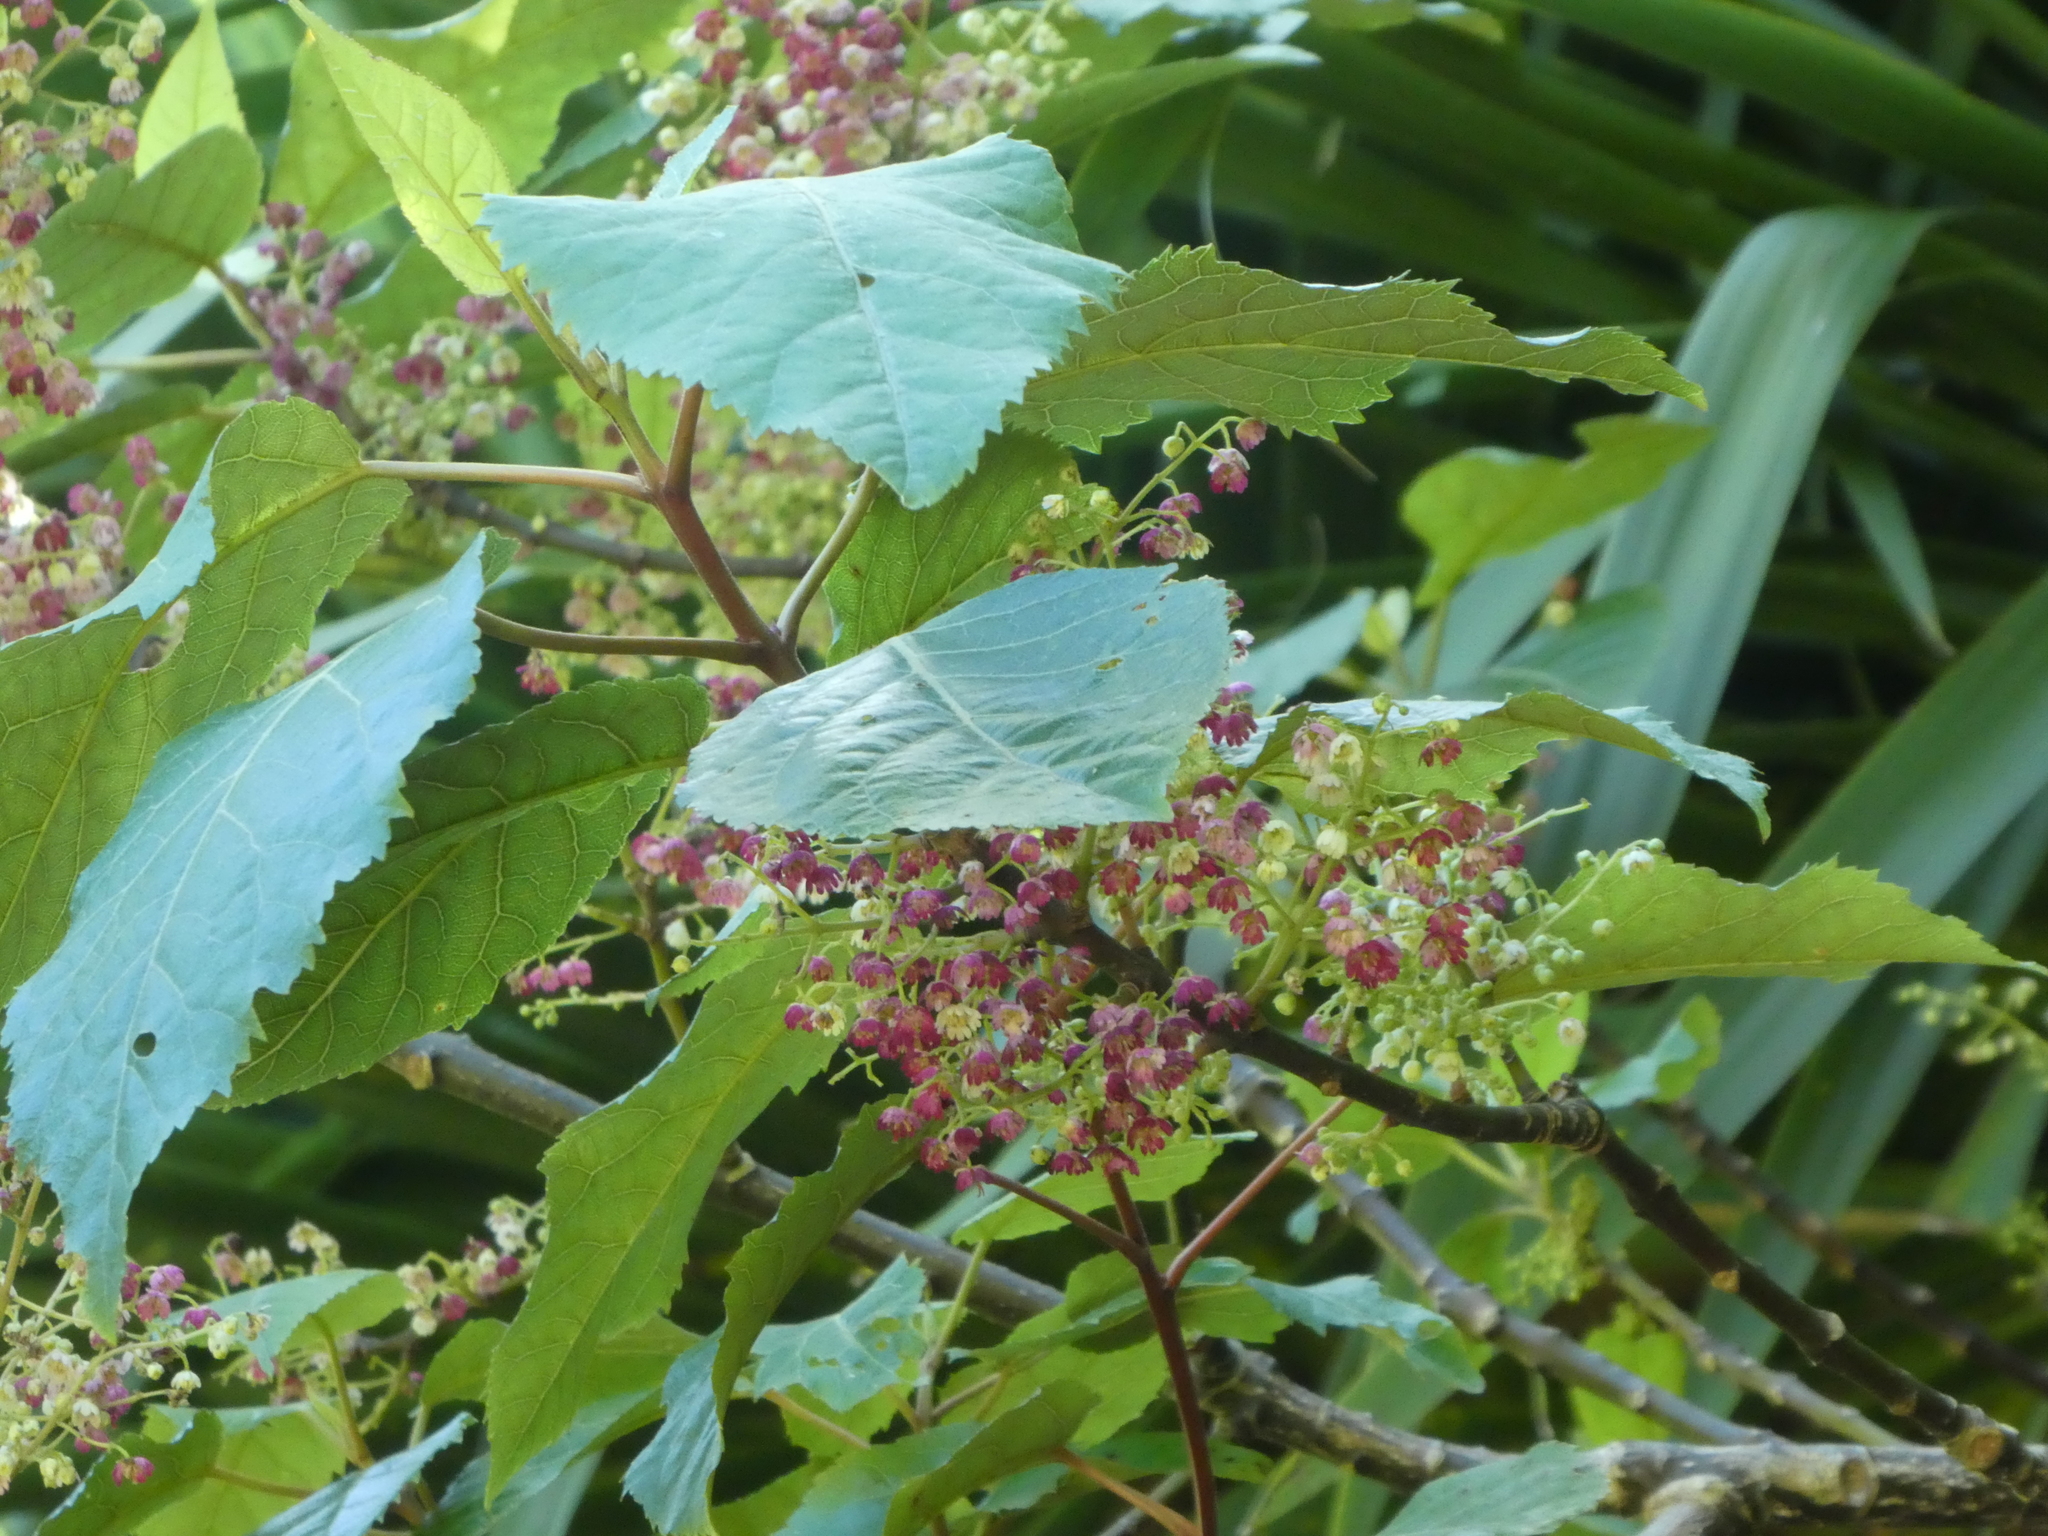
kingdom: Plantae
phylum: Tracheophyta
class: Magnoliopsida
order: Oxalidales
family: Elaeocarpaceae
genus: Aristotelia
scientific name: Aristotelia serrata
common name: New zealand wineberry
